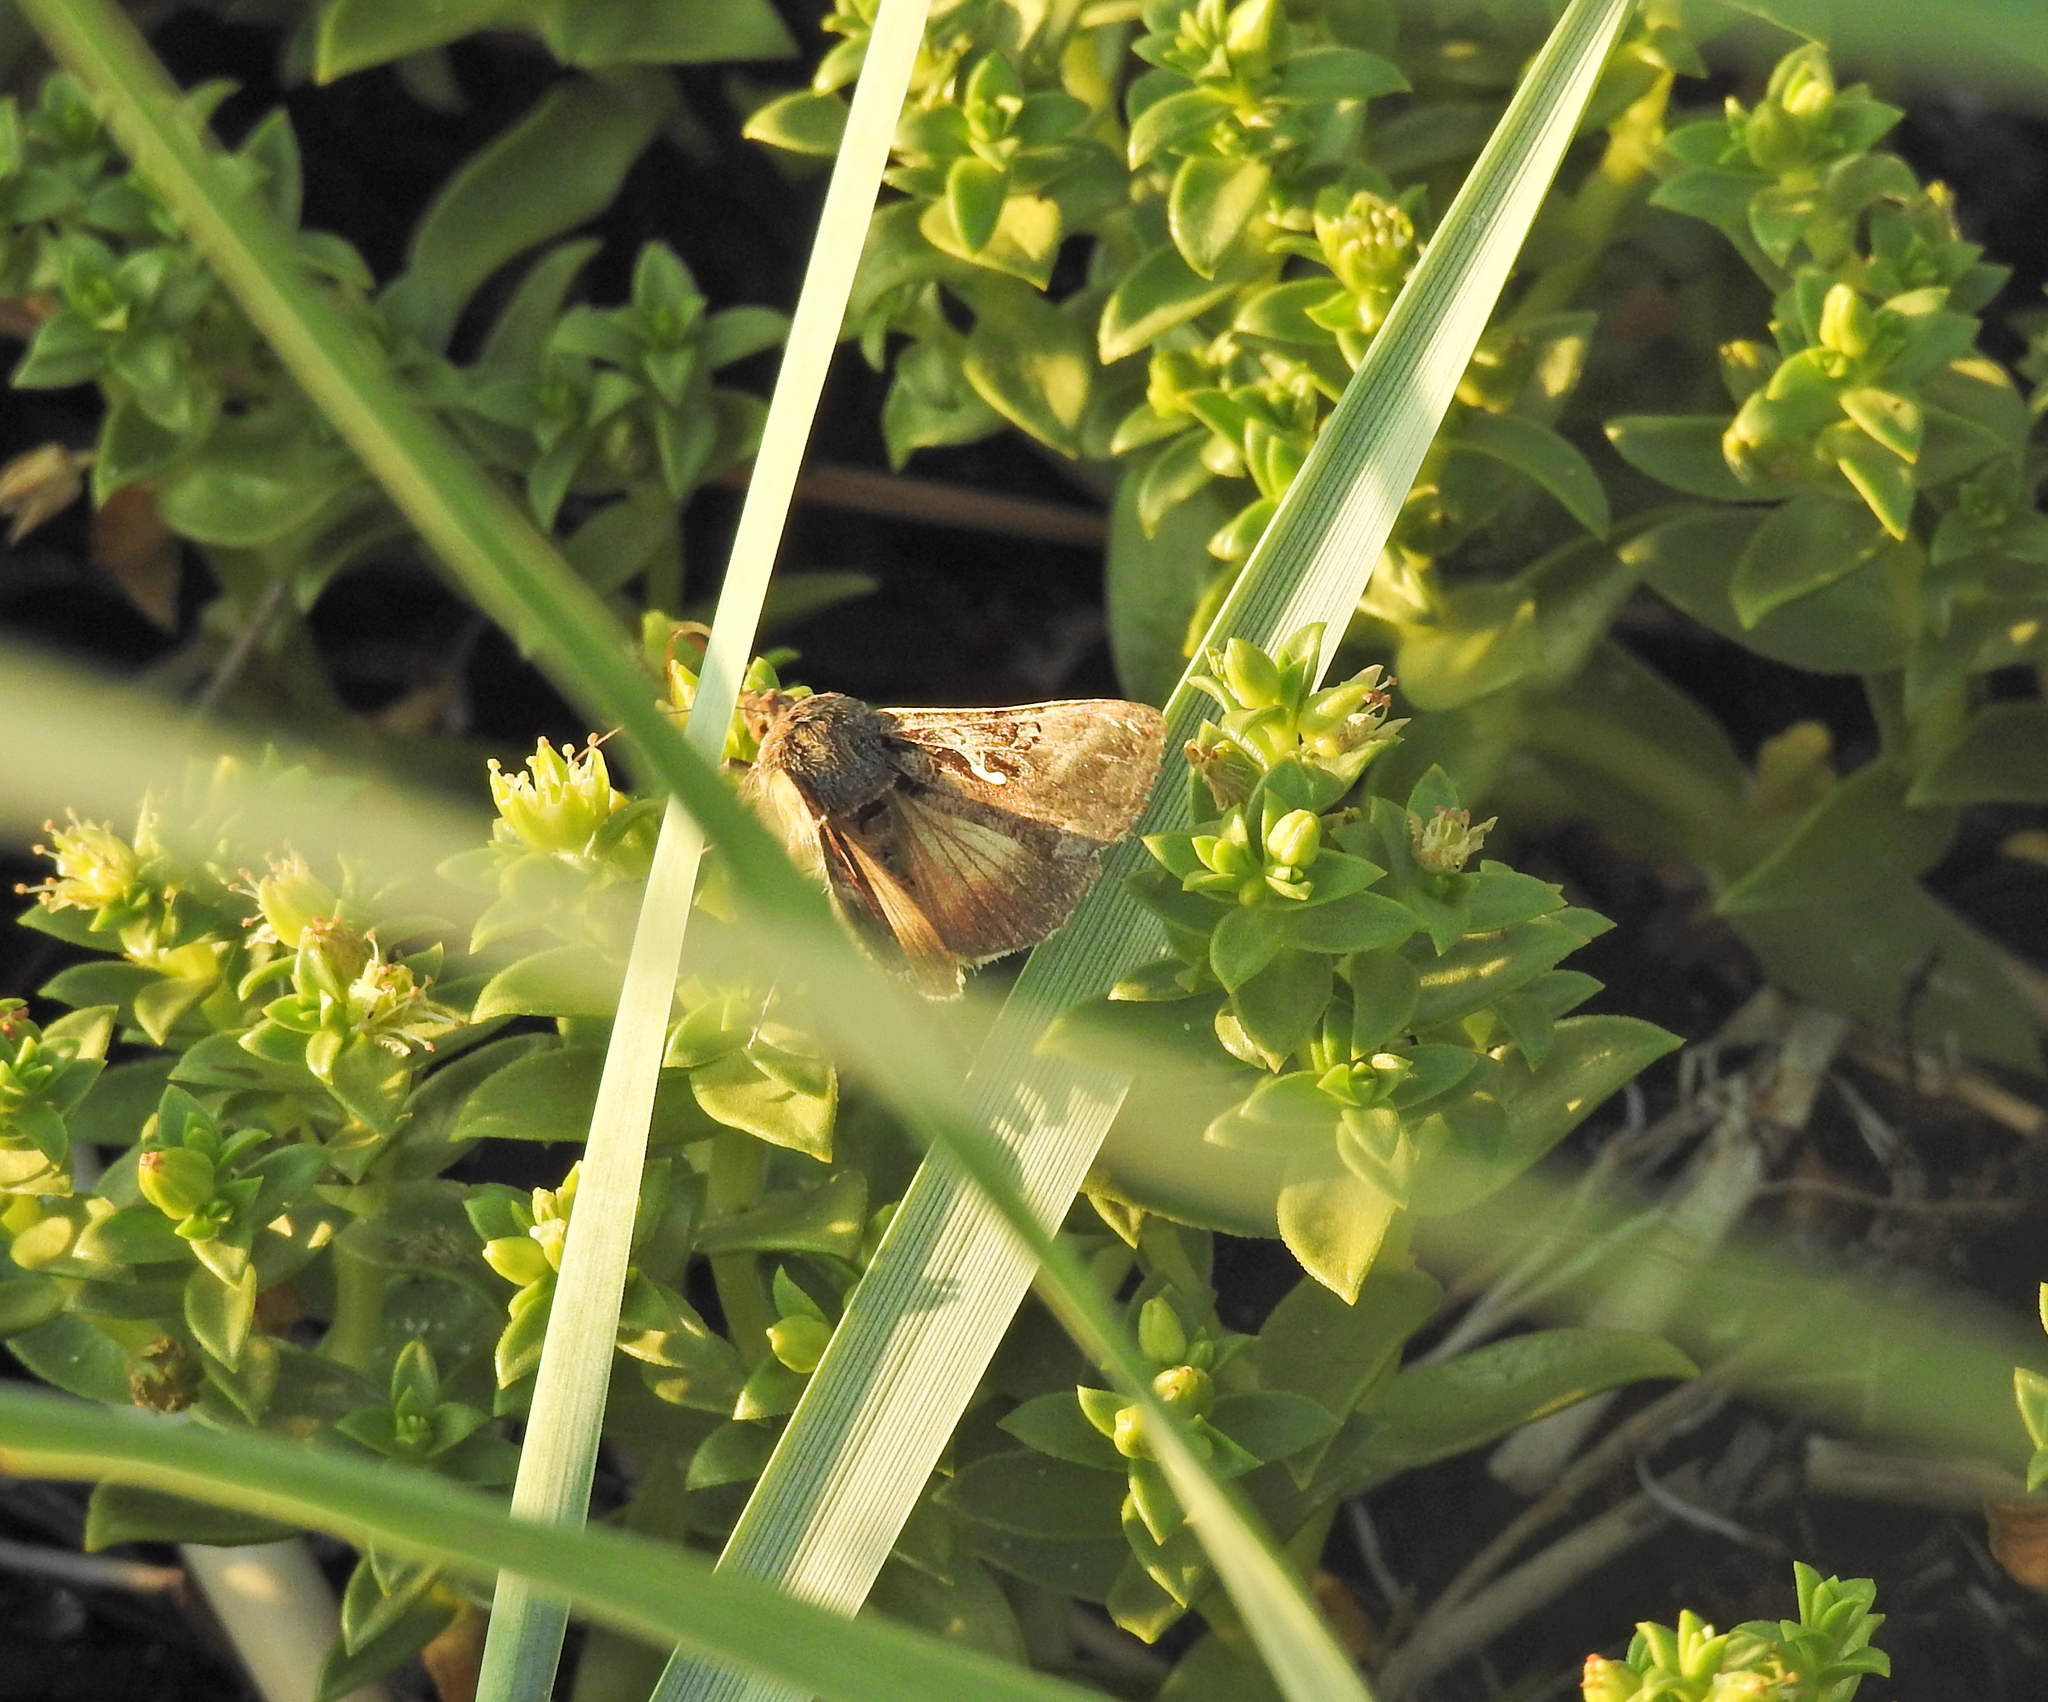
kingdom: Animalia
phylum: Arthropoda
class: Insecta
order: Lepidoptera
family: Noctuidae
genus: Autographa
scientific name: Autographa gamma
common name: Silver y
